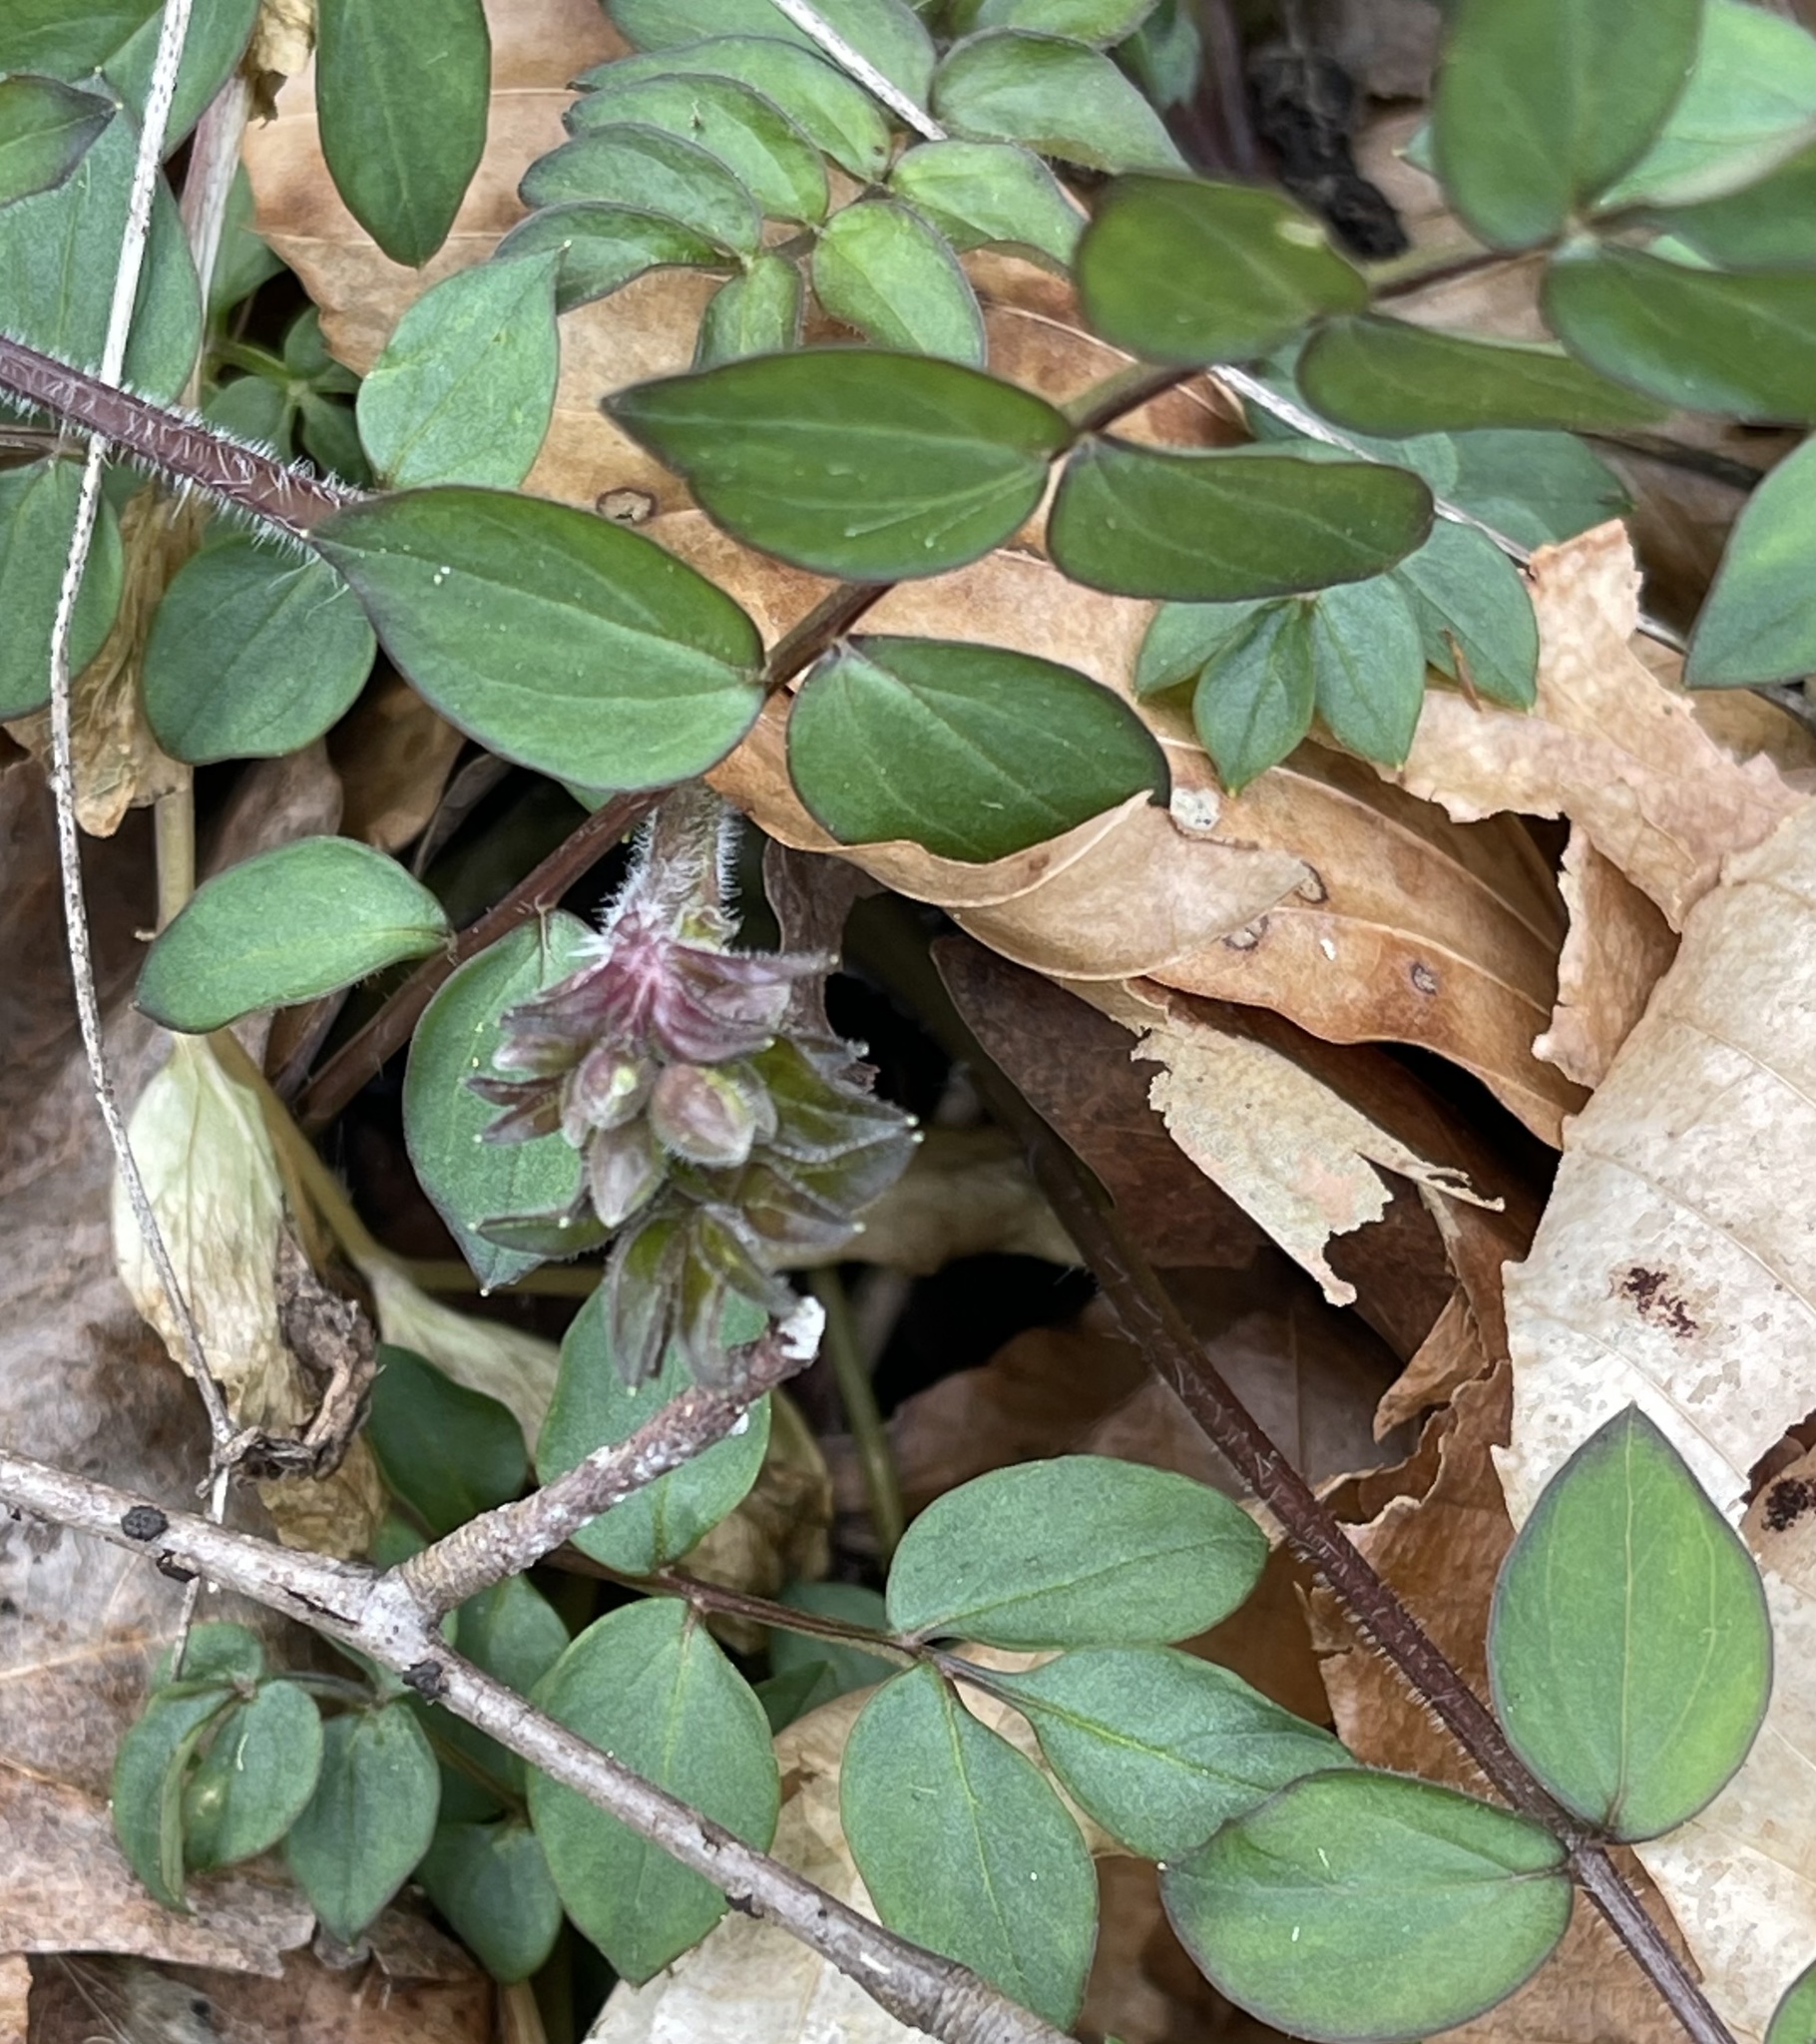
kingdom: Plantae
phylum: Tracheophyta
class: Magnoliopsida
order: Ericales
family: Polemoniaceae
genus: Polemonium
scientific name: Polemonium reptans
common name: Creeping jacob's-ladder
